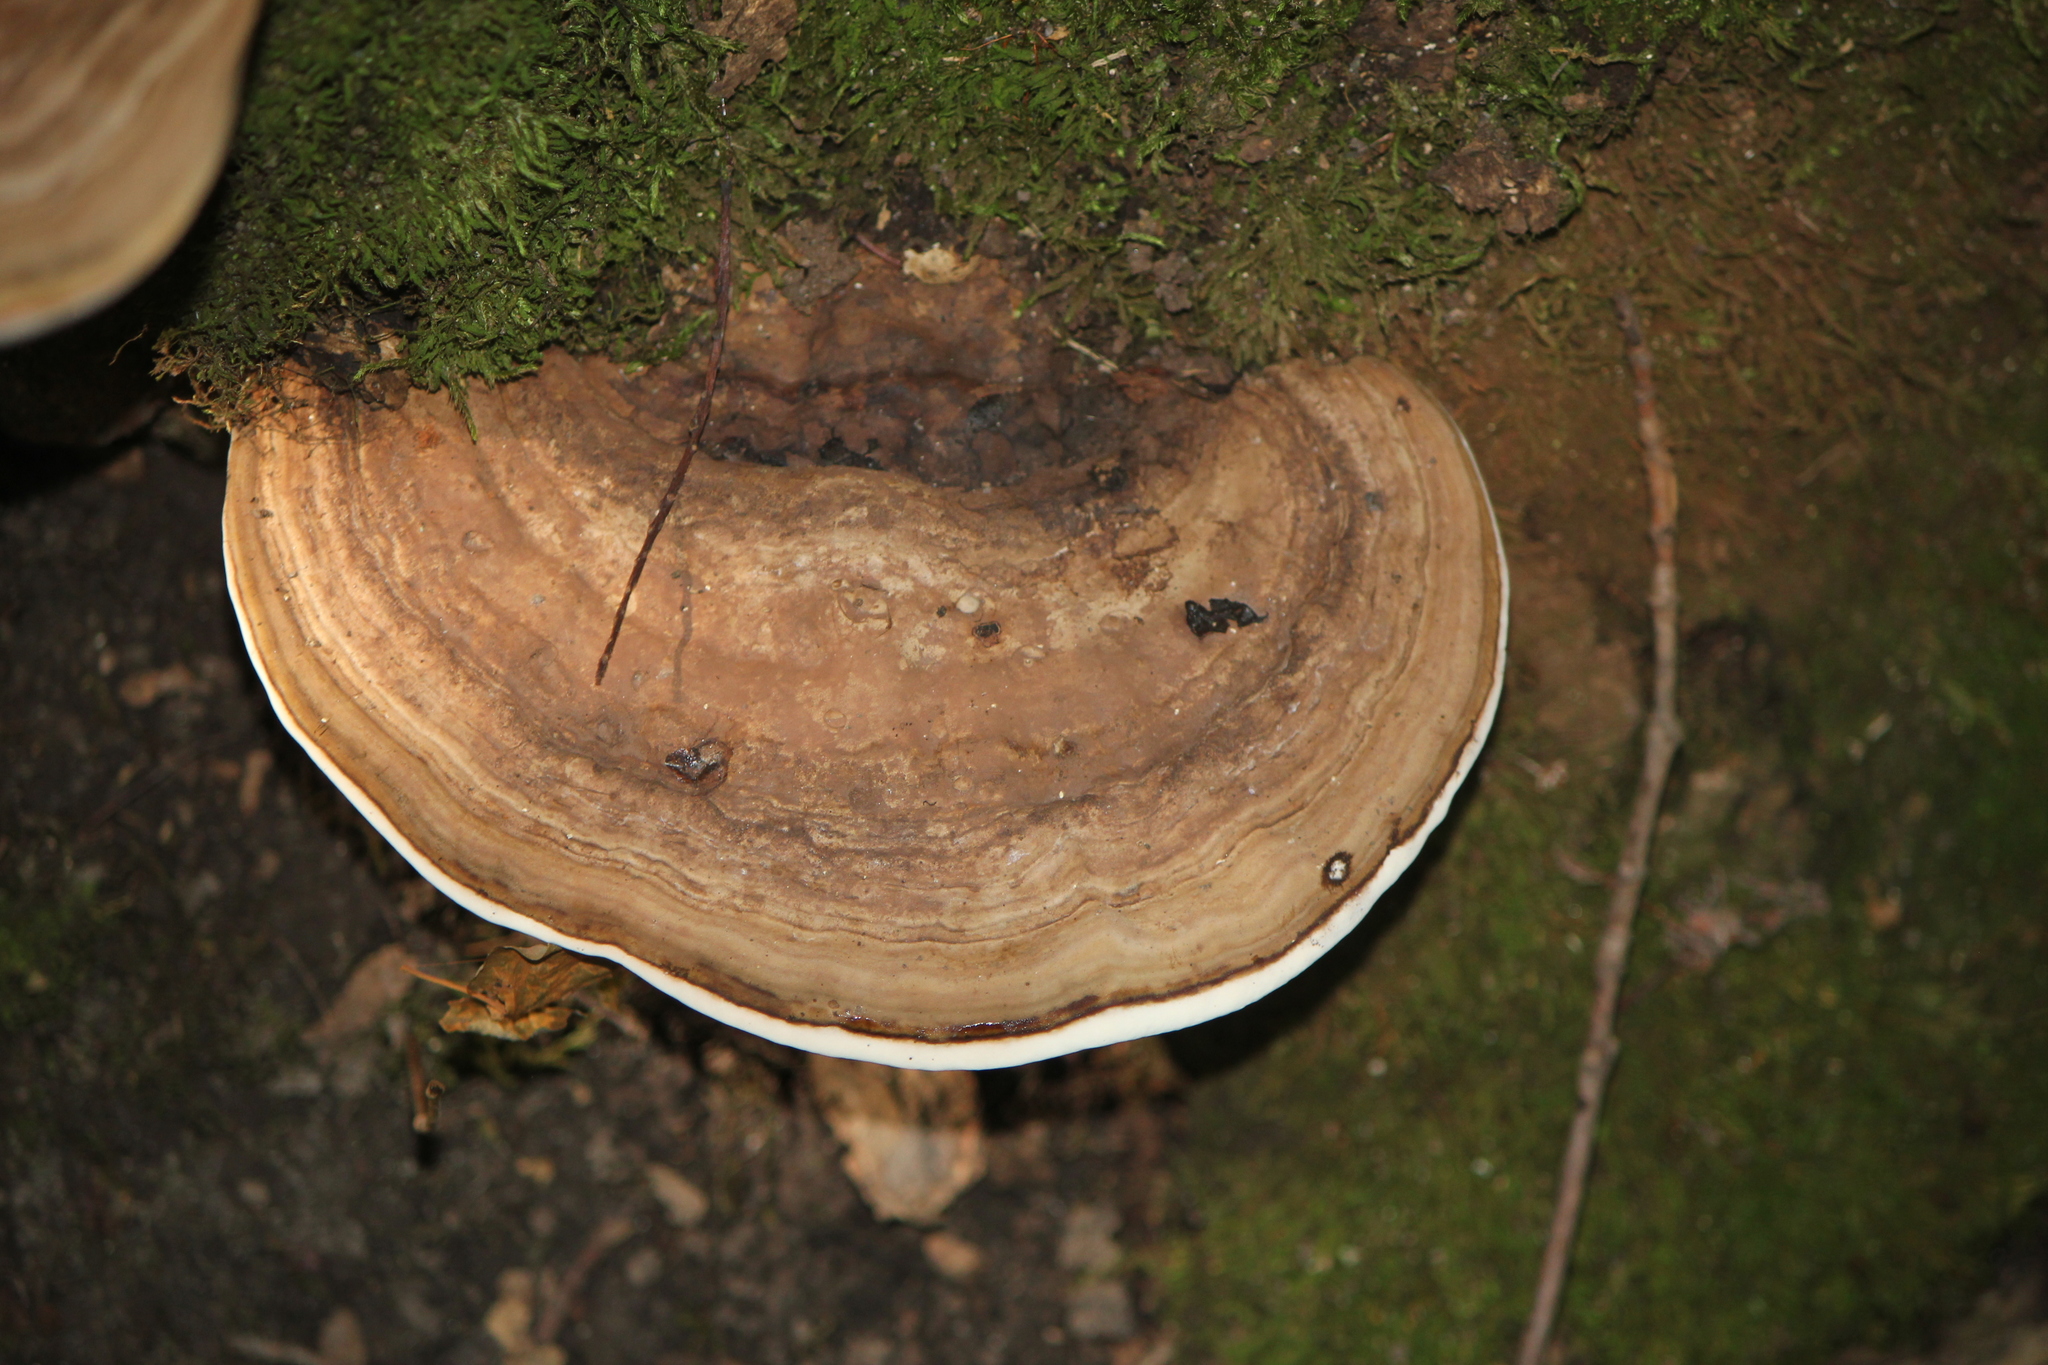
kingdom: Fungi
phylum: Basidiomycota
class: Agaricomycetes
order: Polyporales
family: Polyporaceae
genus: Ganoderma
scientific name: Ganoderma applanatum
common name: Artist's bracket
